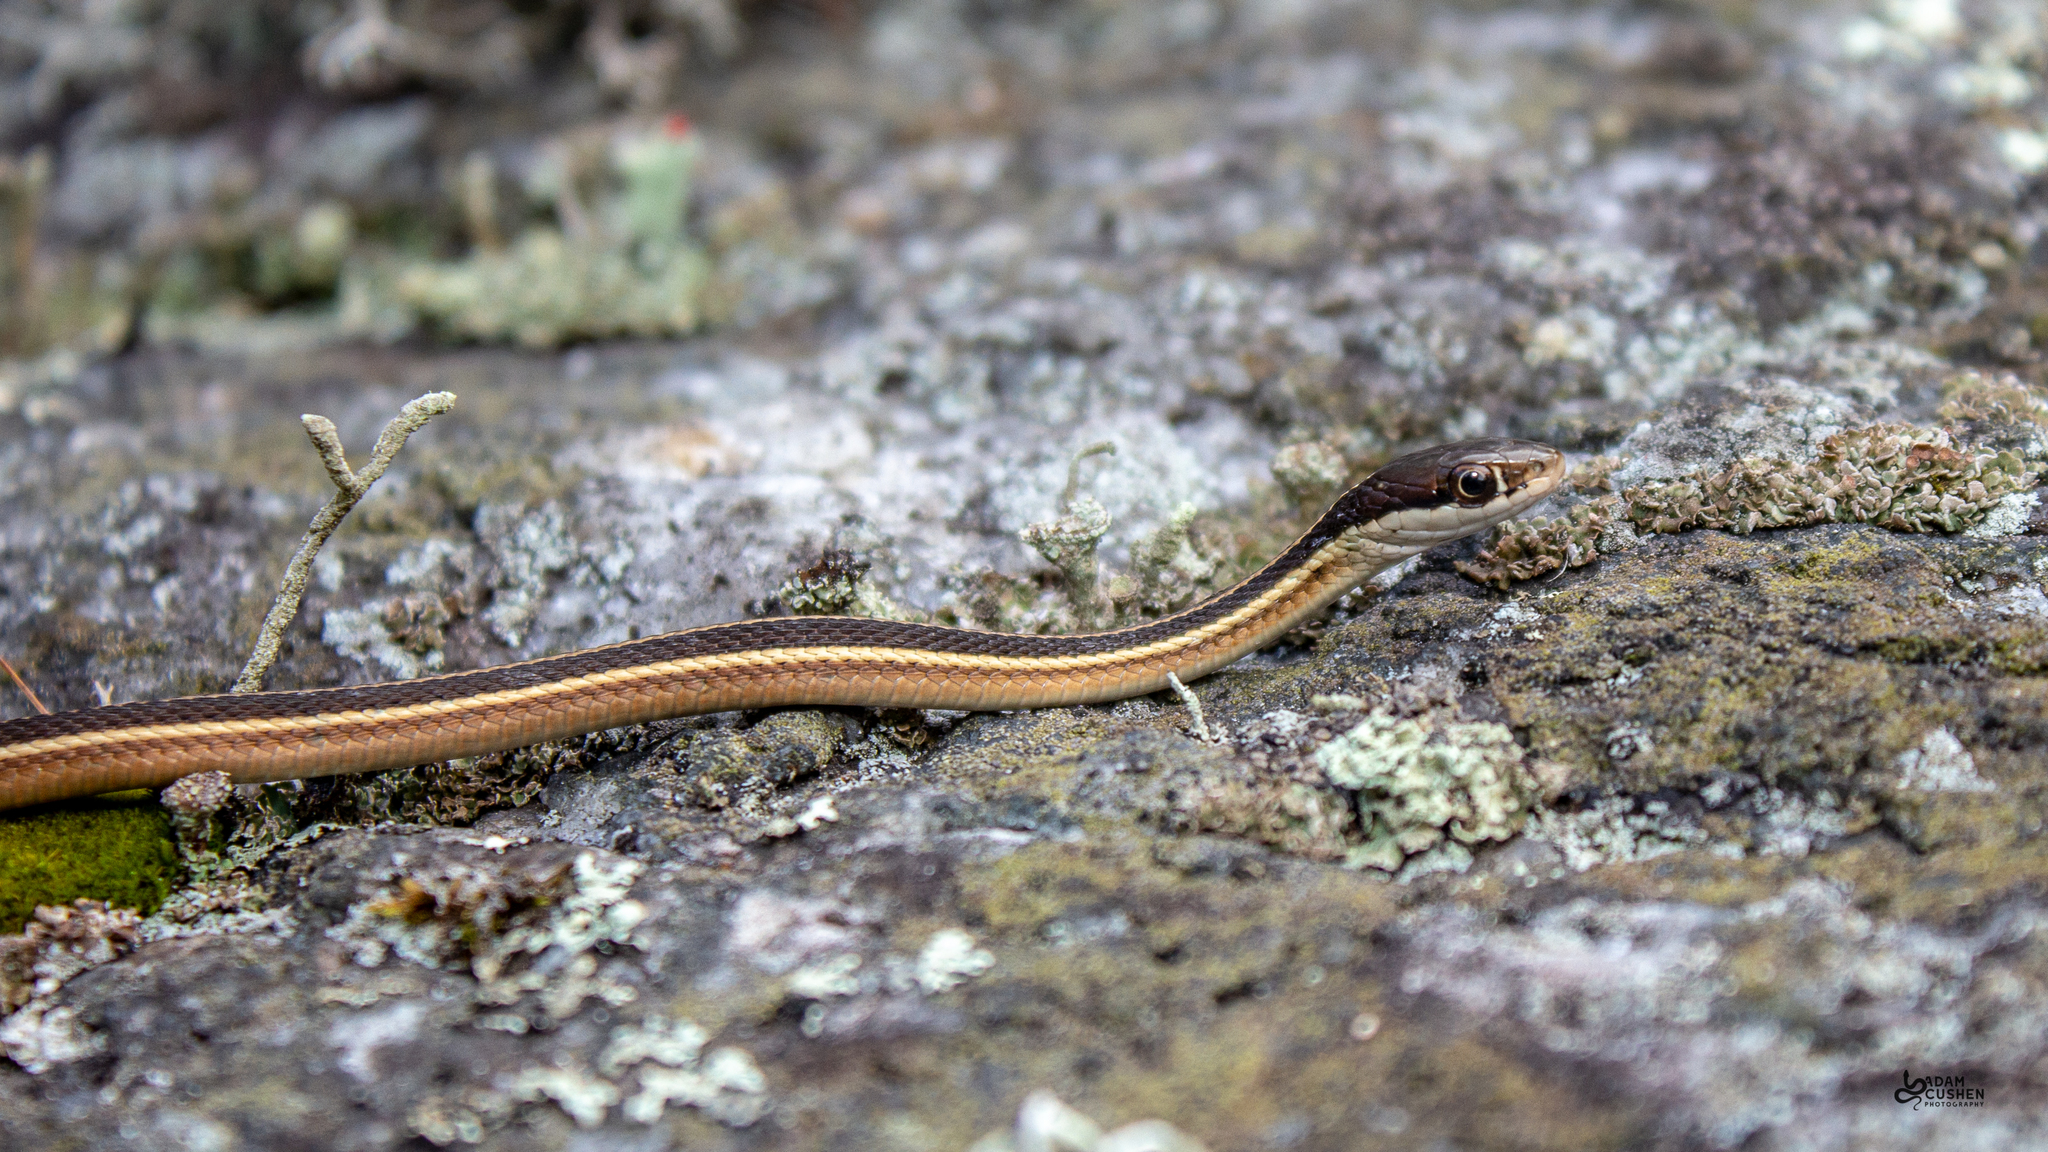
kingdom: Animalia
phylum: Chordata
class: Squamata
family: Colubridae
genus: Thamnophis
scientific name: Thamnophis saurita
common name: Eastern ribbonsnake
